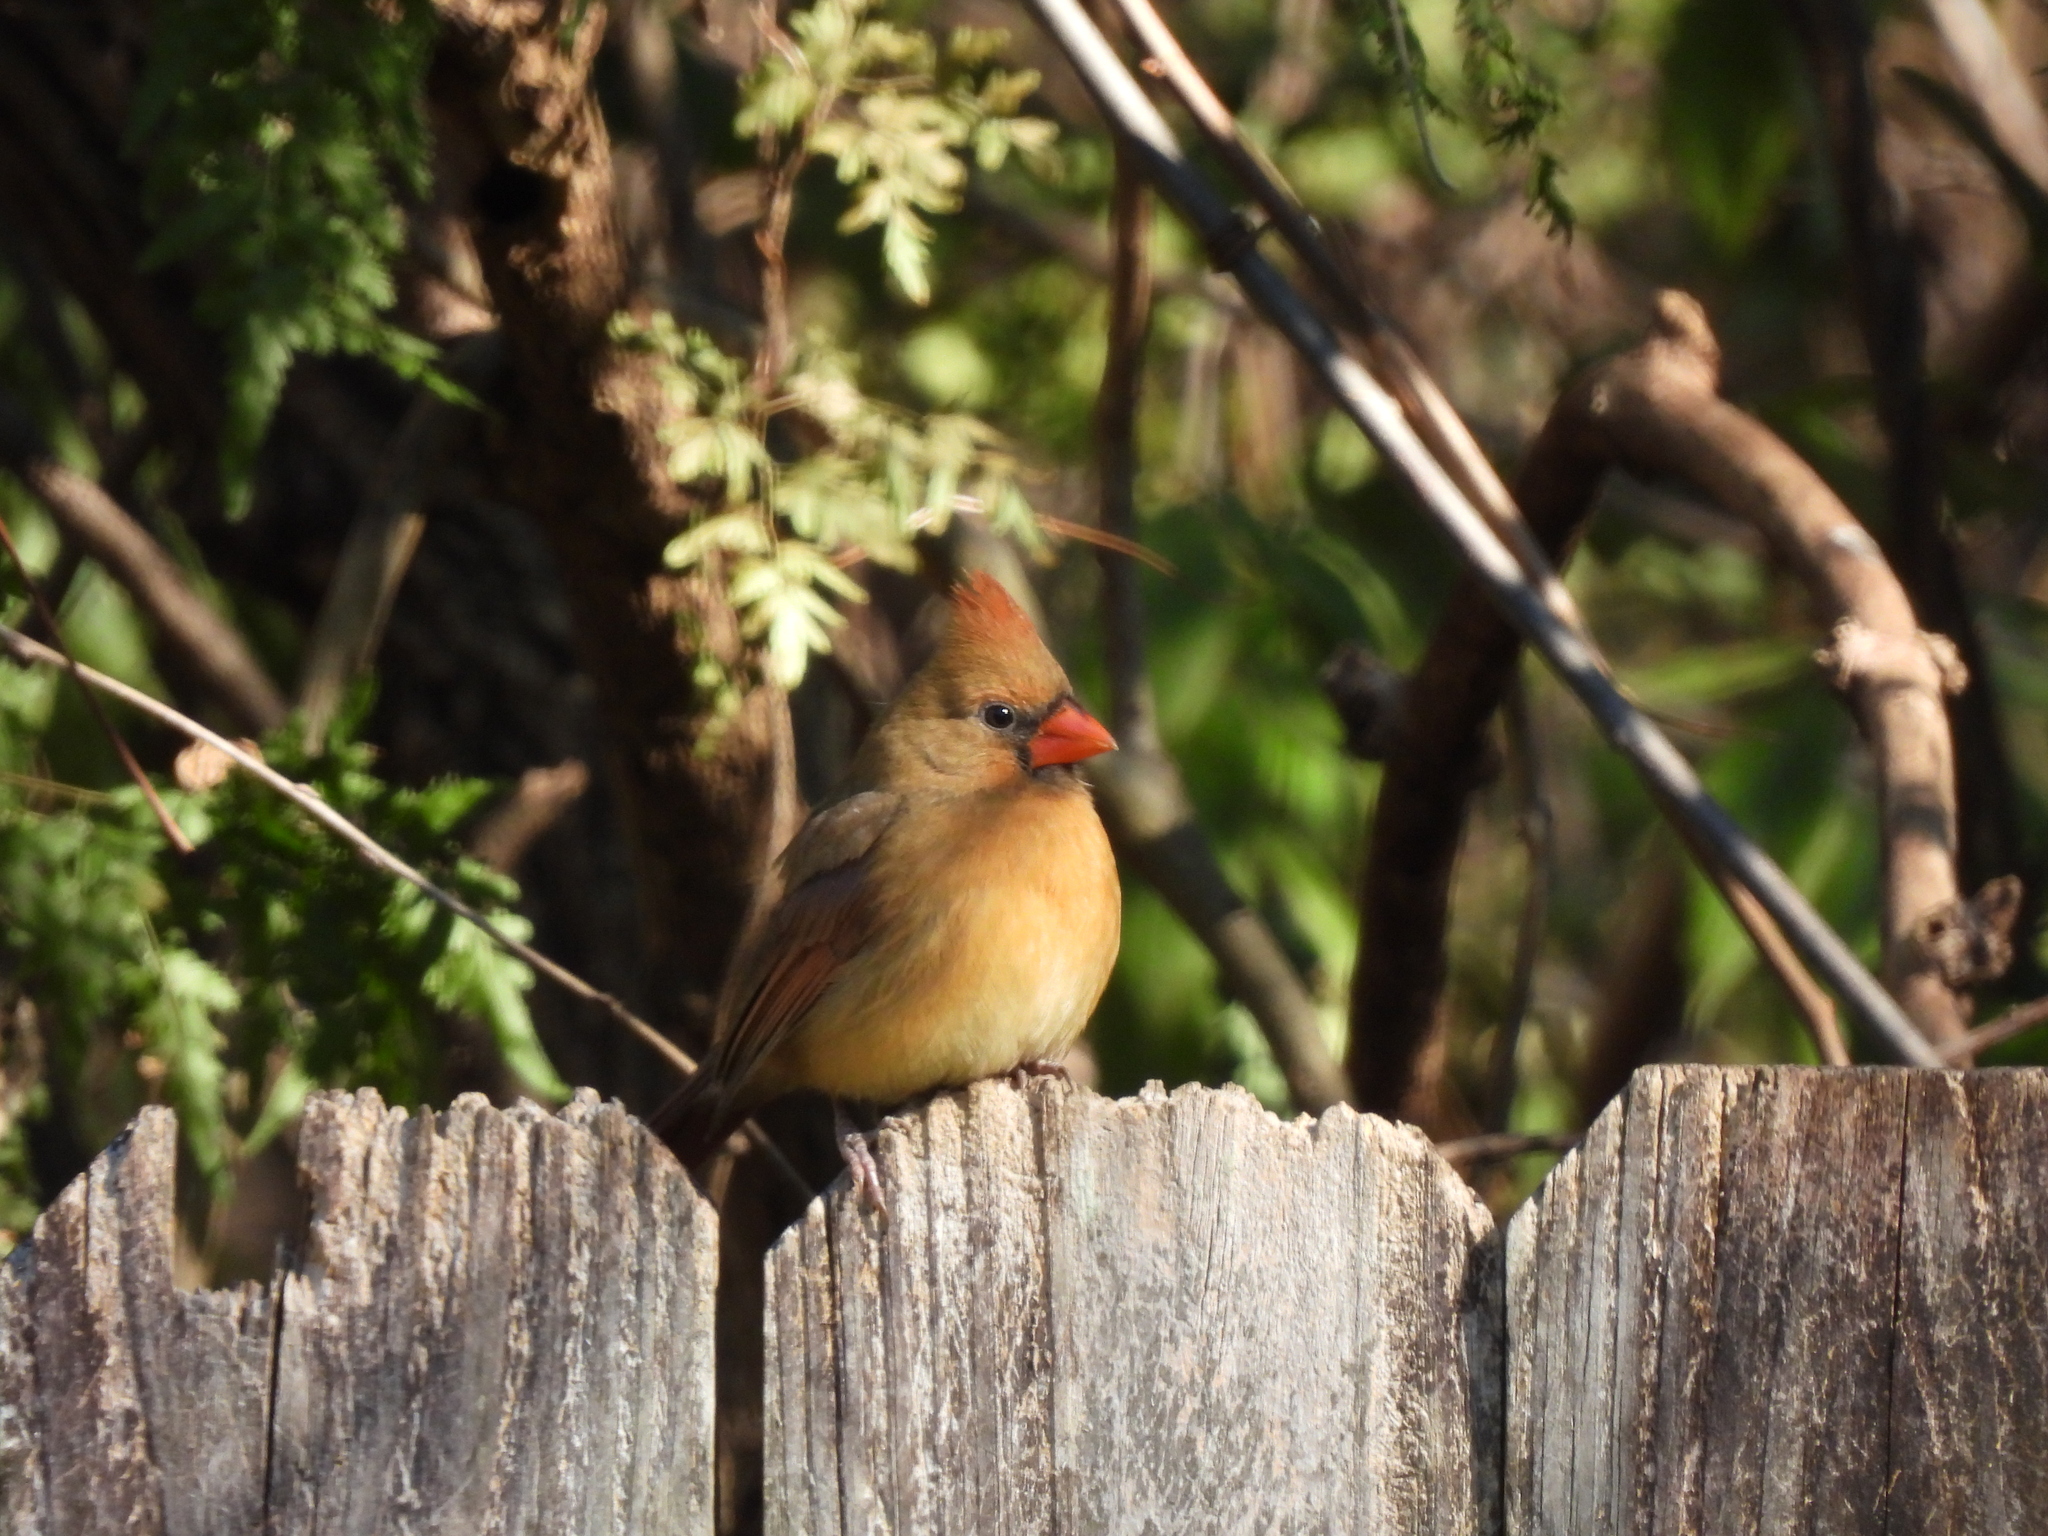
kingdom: Animalia
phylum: Chordata
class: Aves
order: Passeriformes
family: Cardinalidae
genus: Cardinalis
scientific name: Cardinalis cardinalis
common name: Northern cardinal
